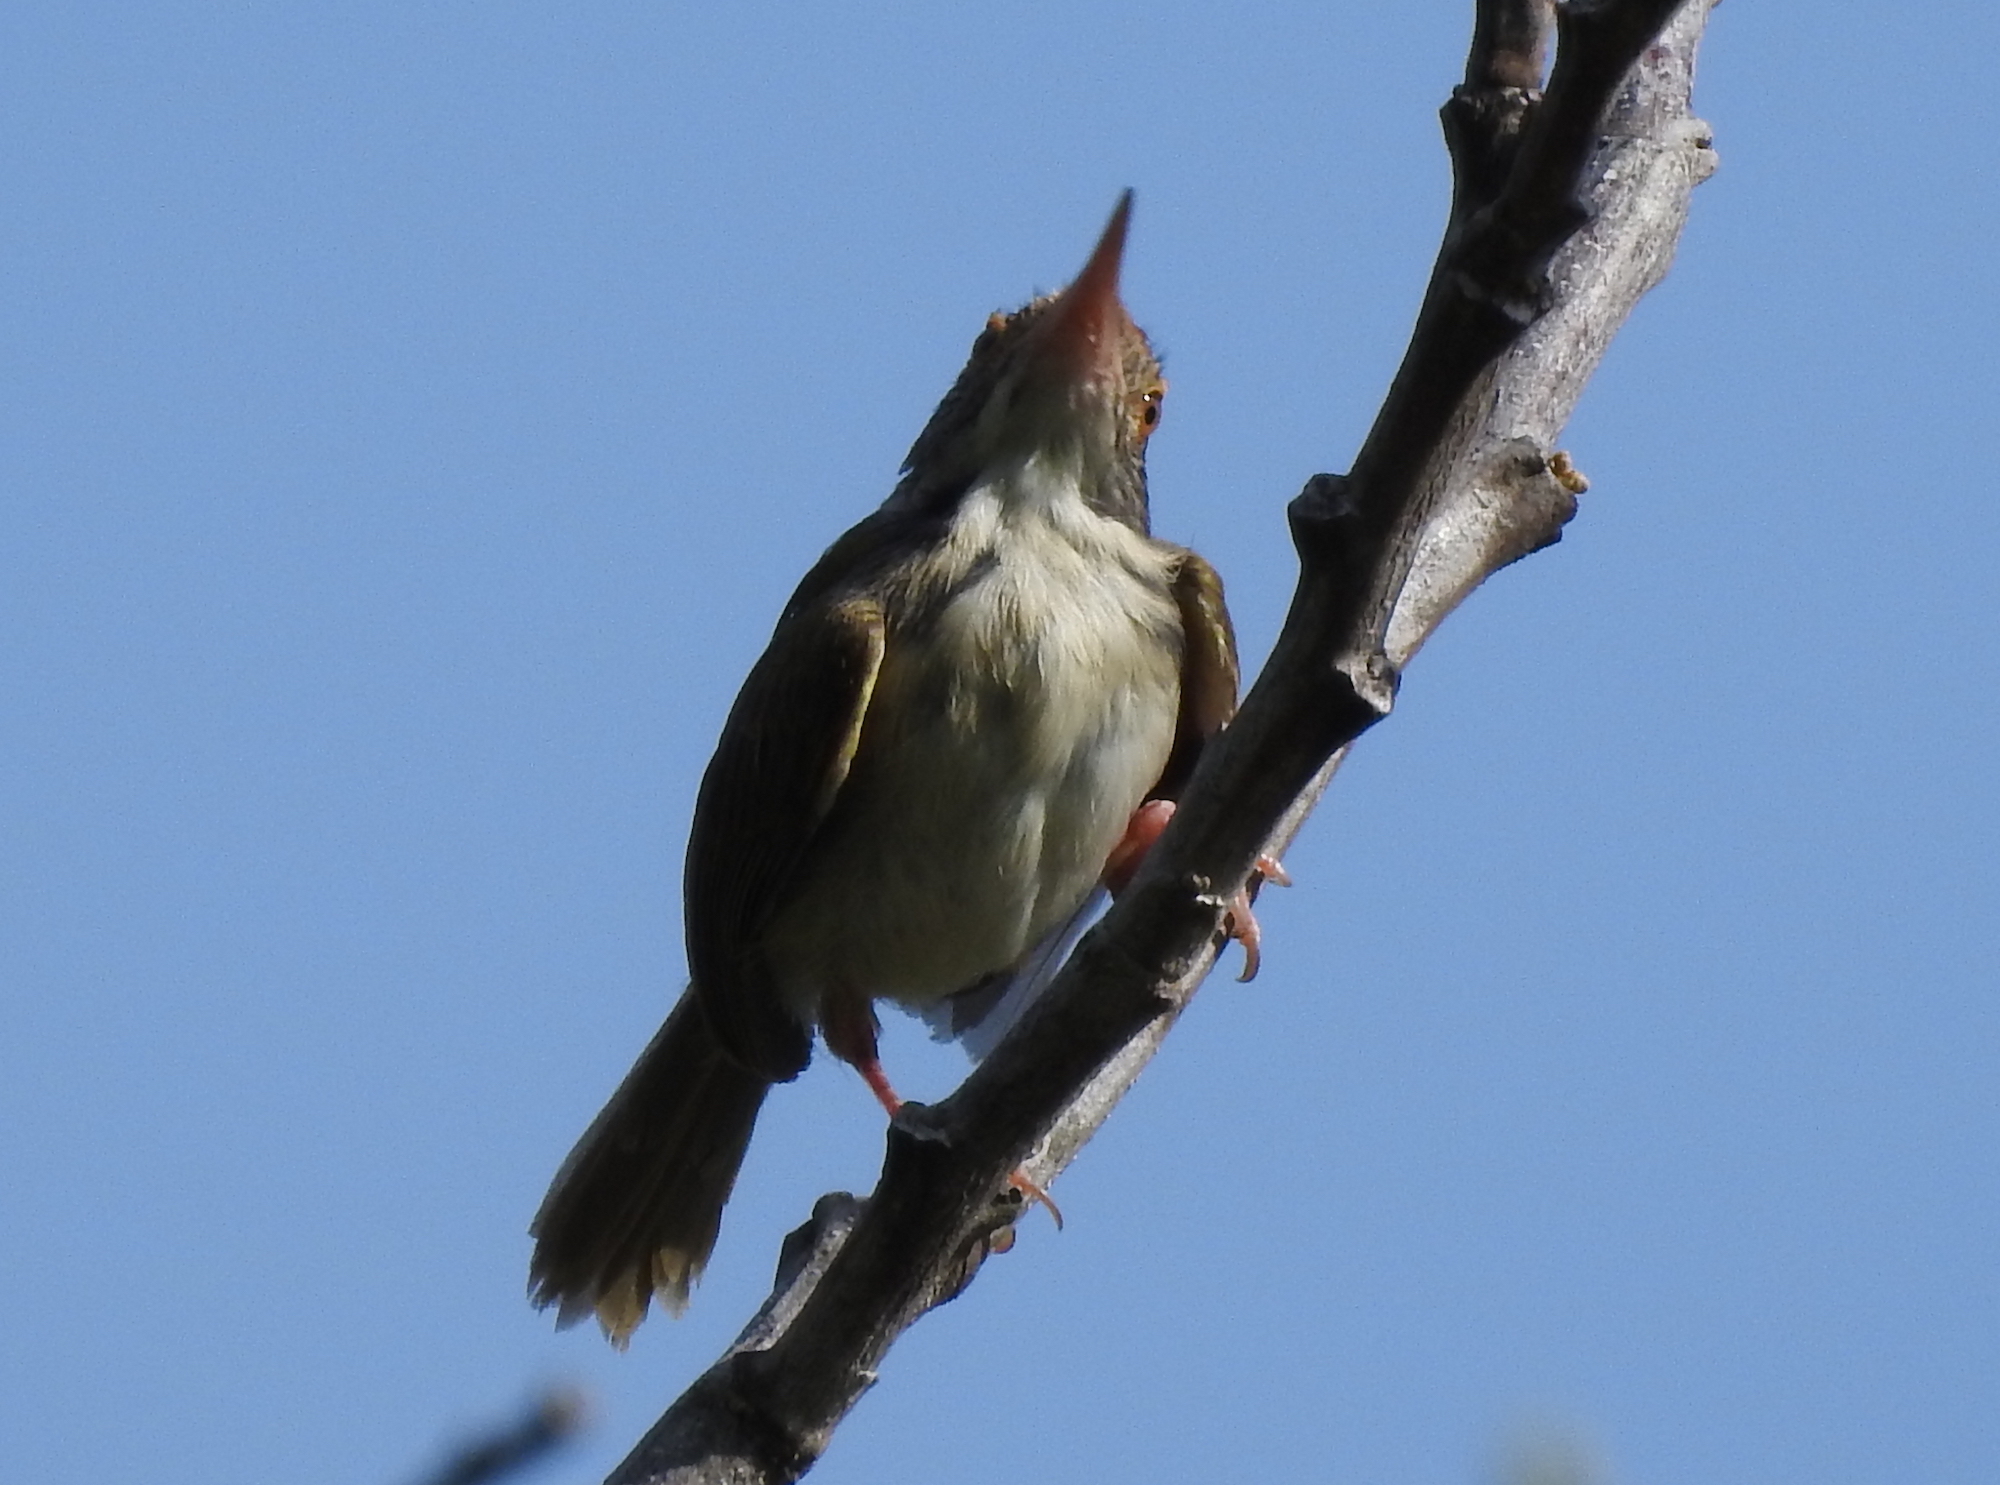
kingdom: Animalia
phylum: Chordata
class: Aves
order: Passeriformes
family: Cisticolidae
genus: Orthotomus
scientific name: Orthotomus sutorius
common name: Common tailorbird
